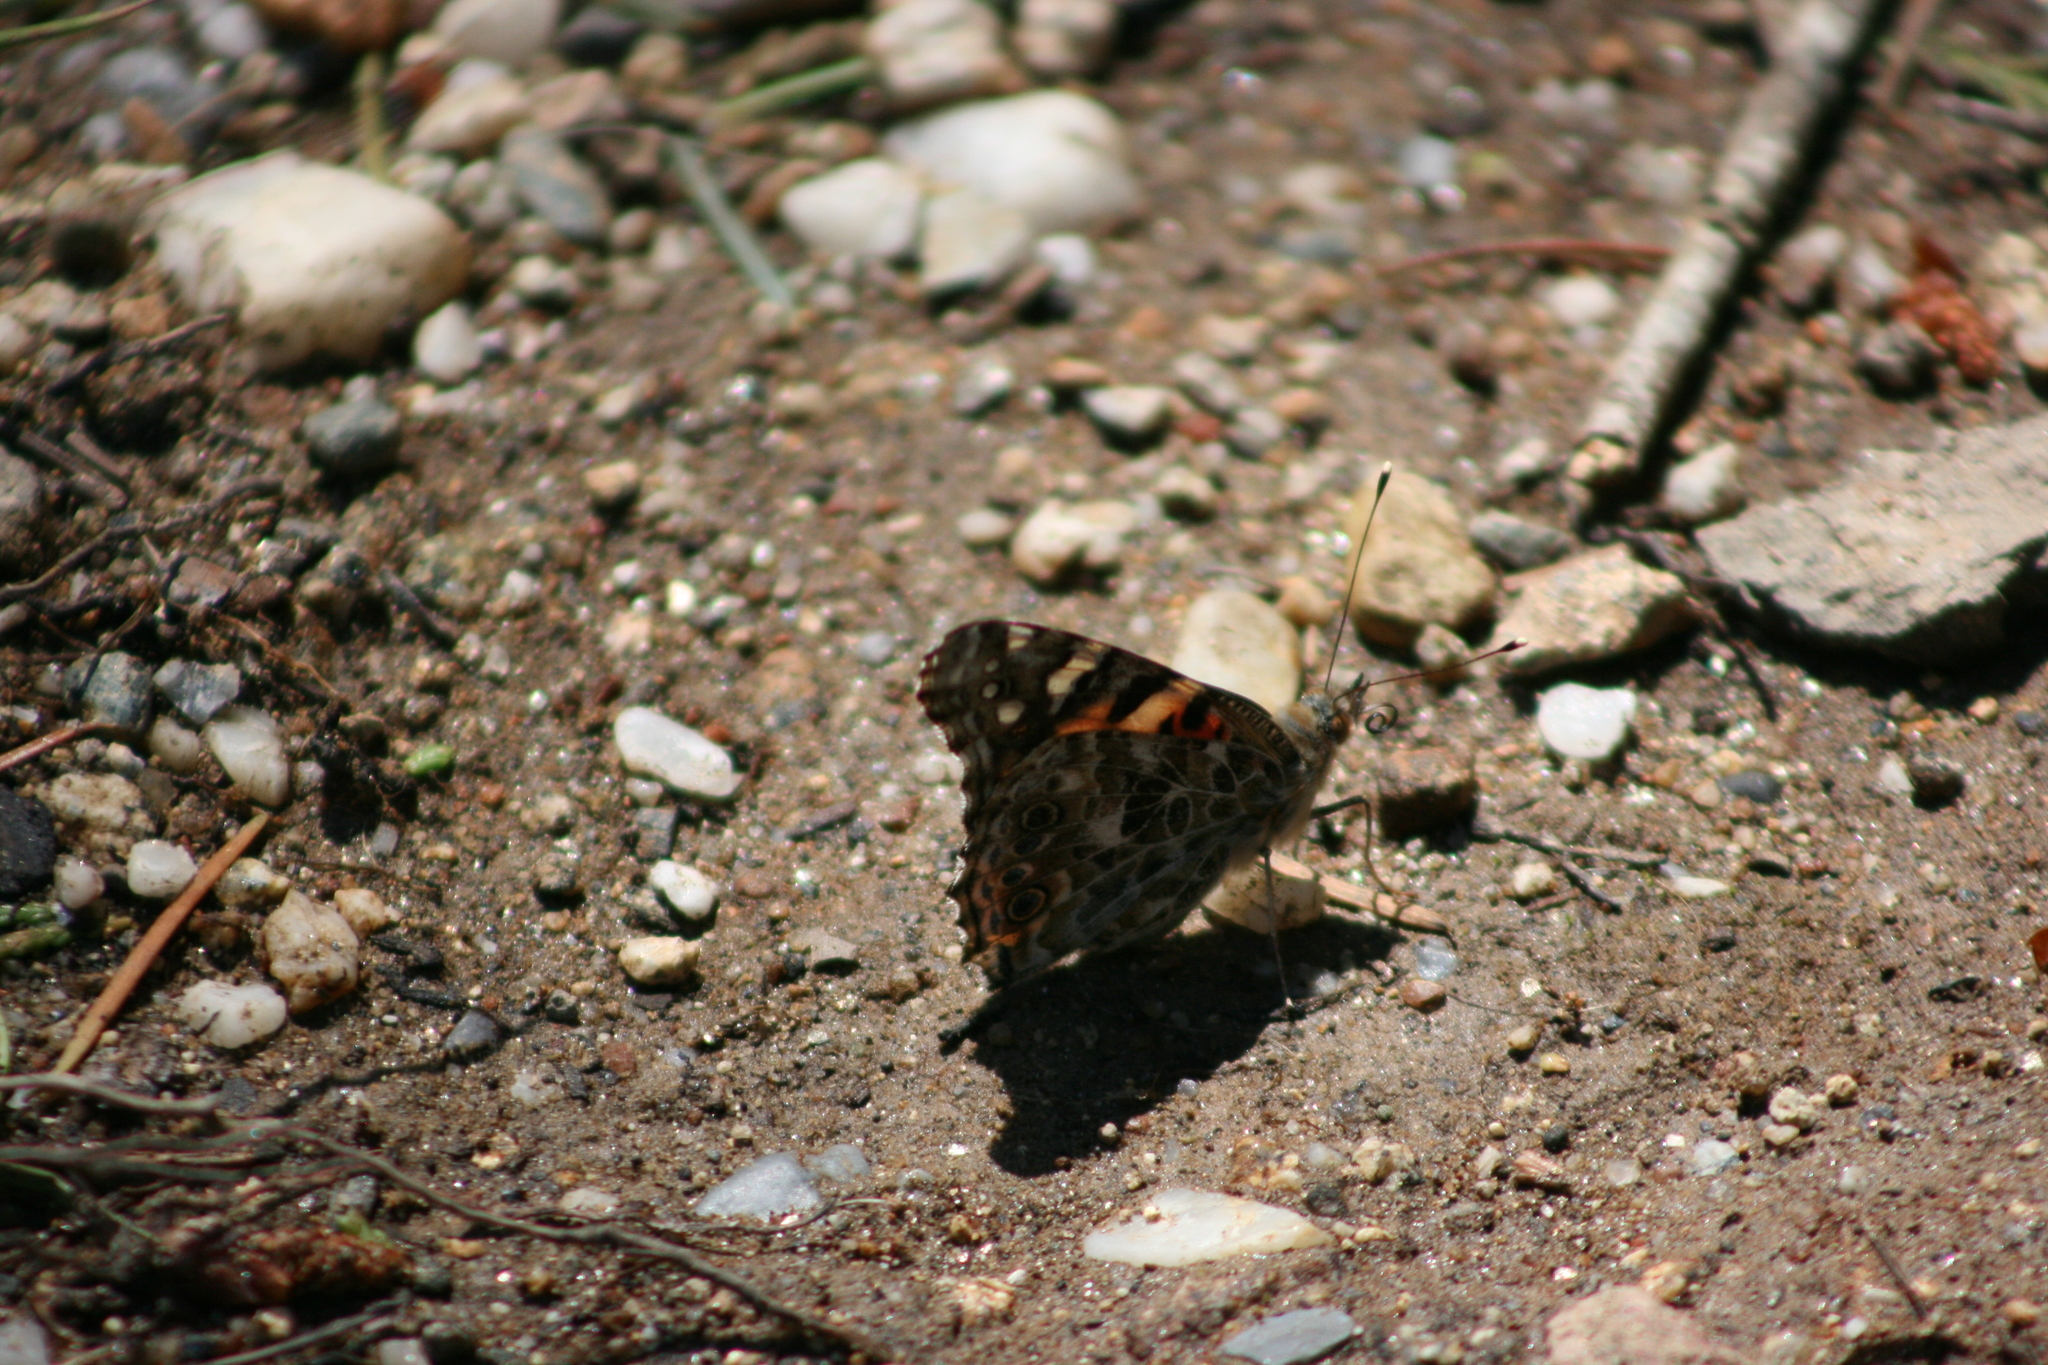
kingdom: Animalia
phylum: Arthropoda
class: Insecta
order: Lepidoptera
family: Nymphalidae
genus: Vanessa
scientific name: Vanessa cardui
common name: Painted lady
